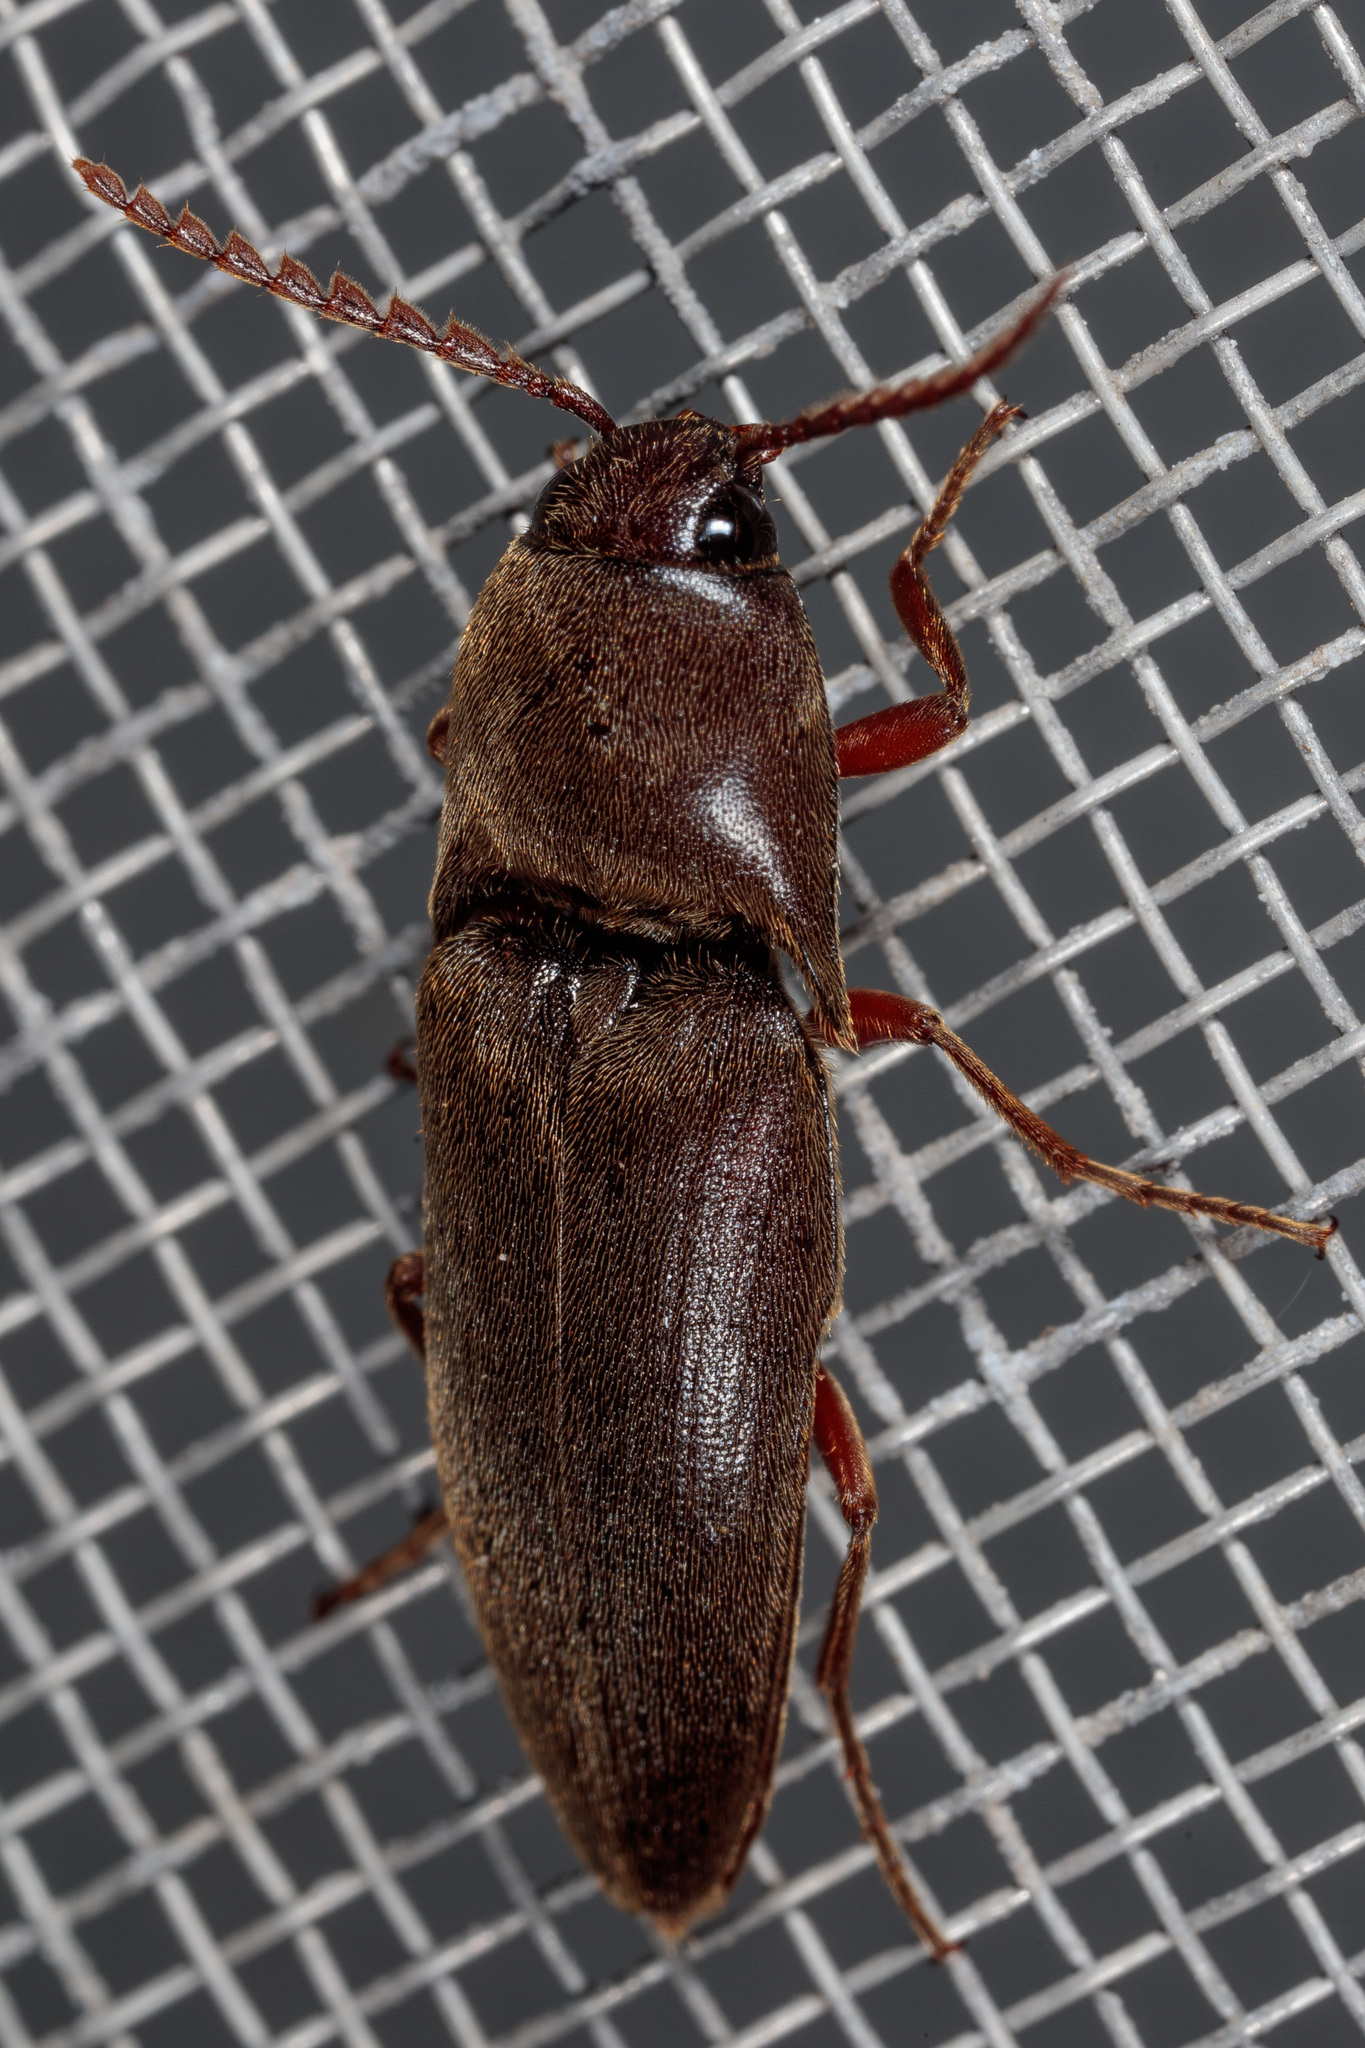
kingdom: Animalia
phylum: Arthropoda
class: Insecta
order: Coleoptera
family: Elateridae
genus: Diplostethus
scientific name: Diplostethus
